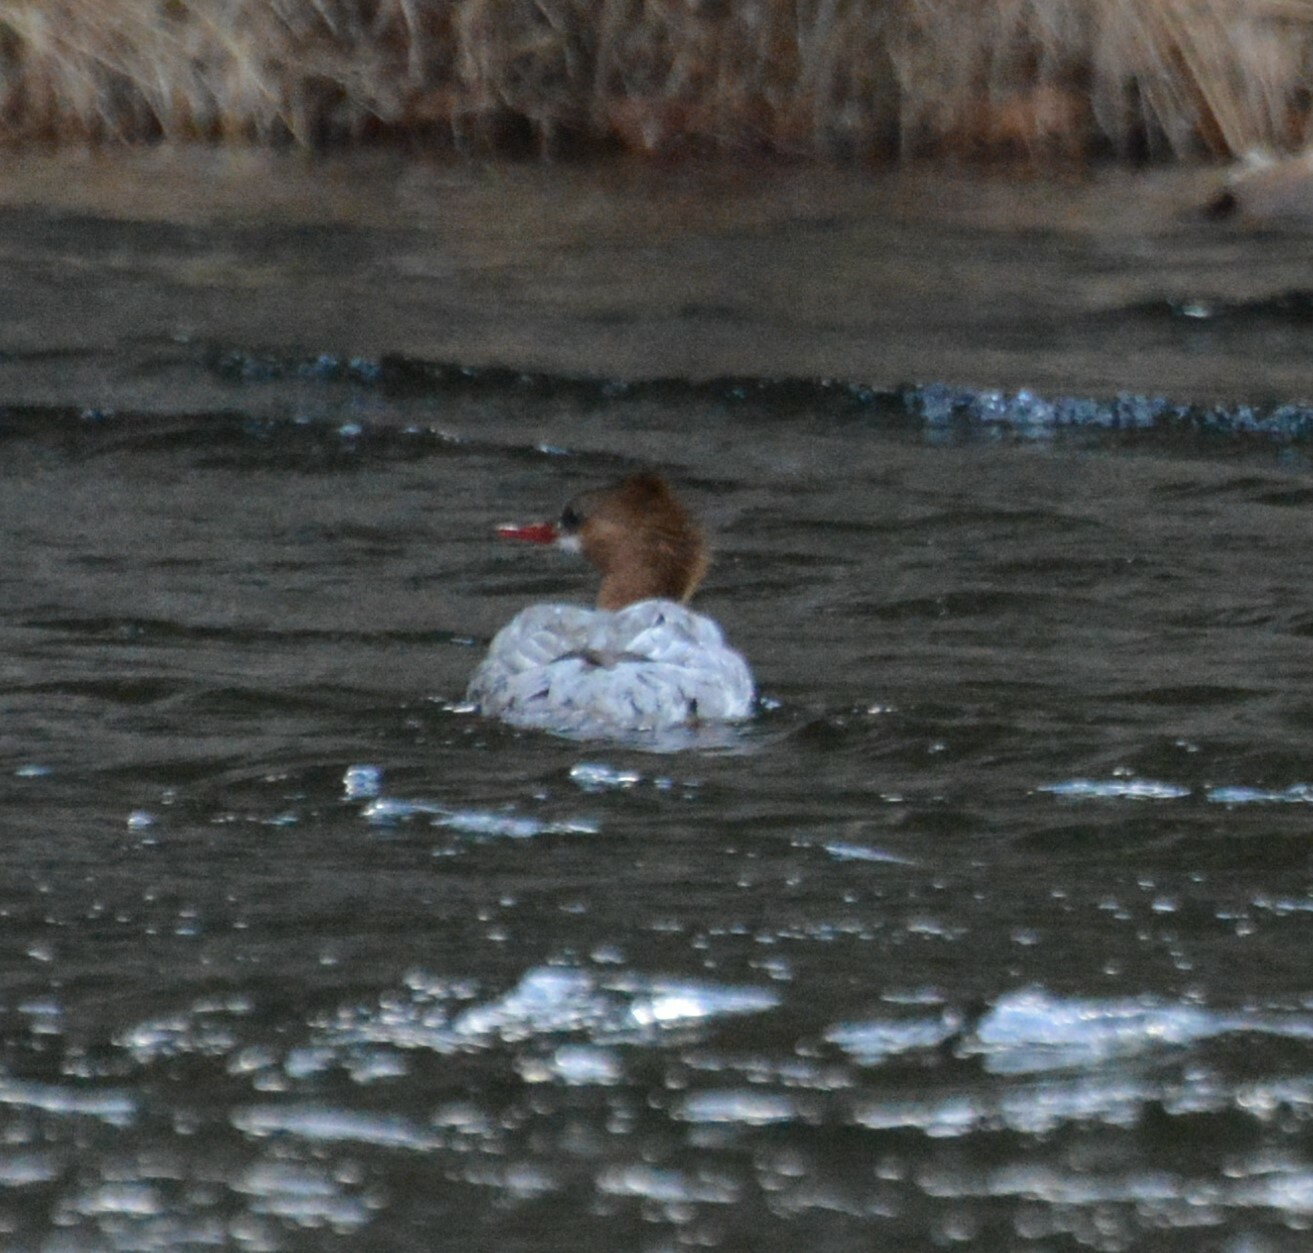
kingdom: Animalia
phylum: Chordata
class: Aves
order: Anseriformes
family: Anatidae
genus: Mergus
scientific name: Mergus merganser
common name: Common merganser
